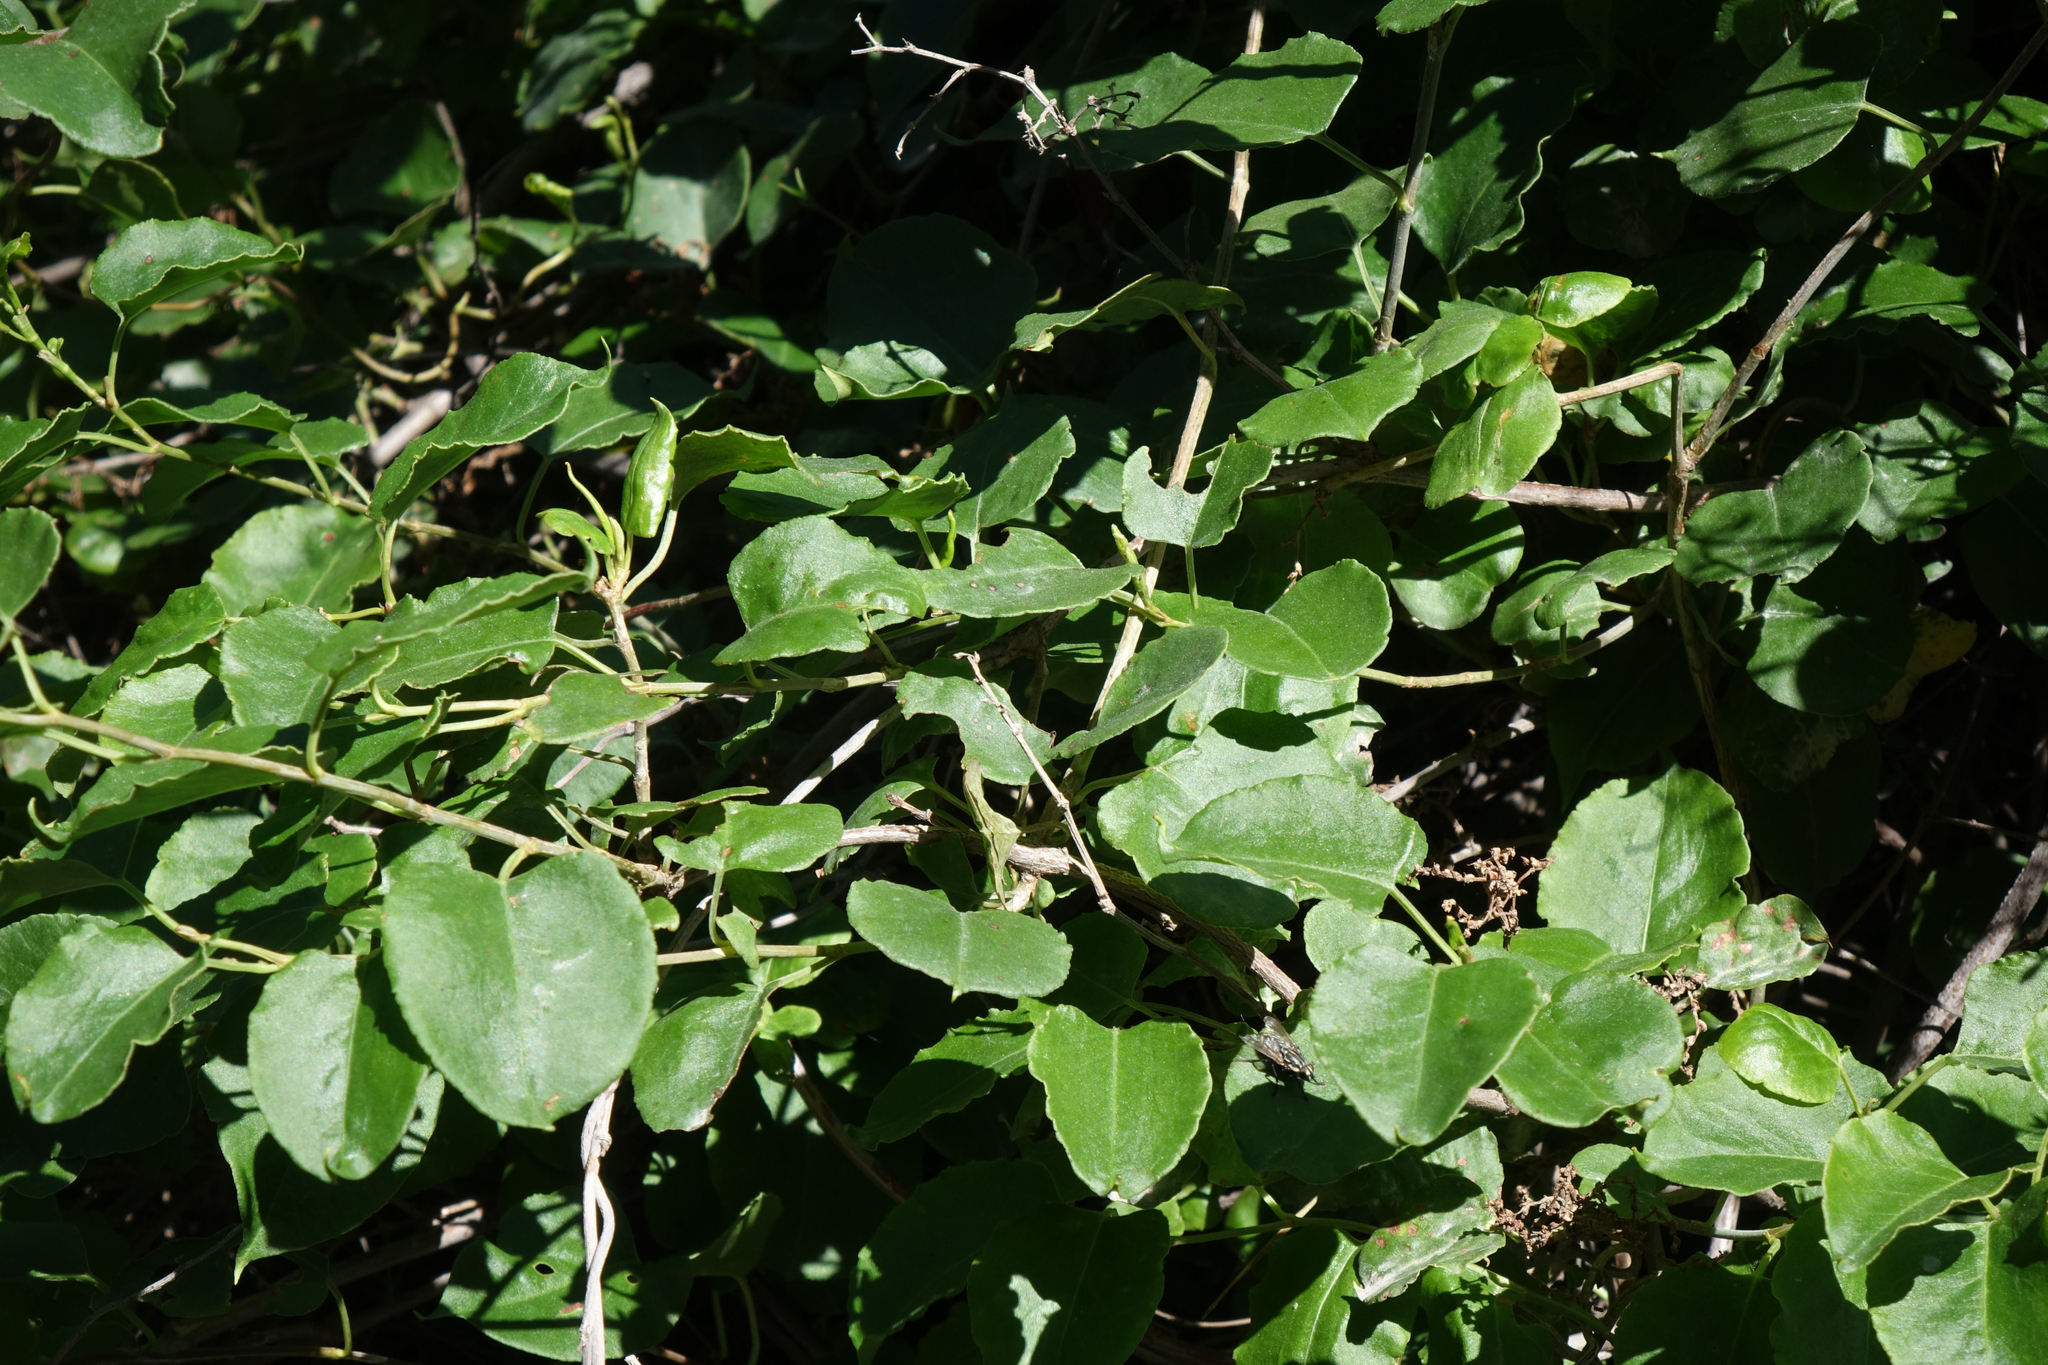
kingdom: Plantae
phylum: Tracheophyta
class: Magnoliopsida
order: Caryophyllales
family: Polygonaceae
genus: Muehlenbeckia
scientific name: Muehlenbeckia australis
